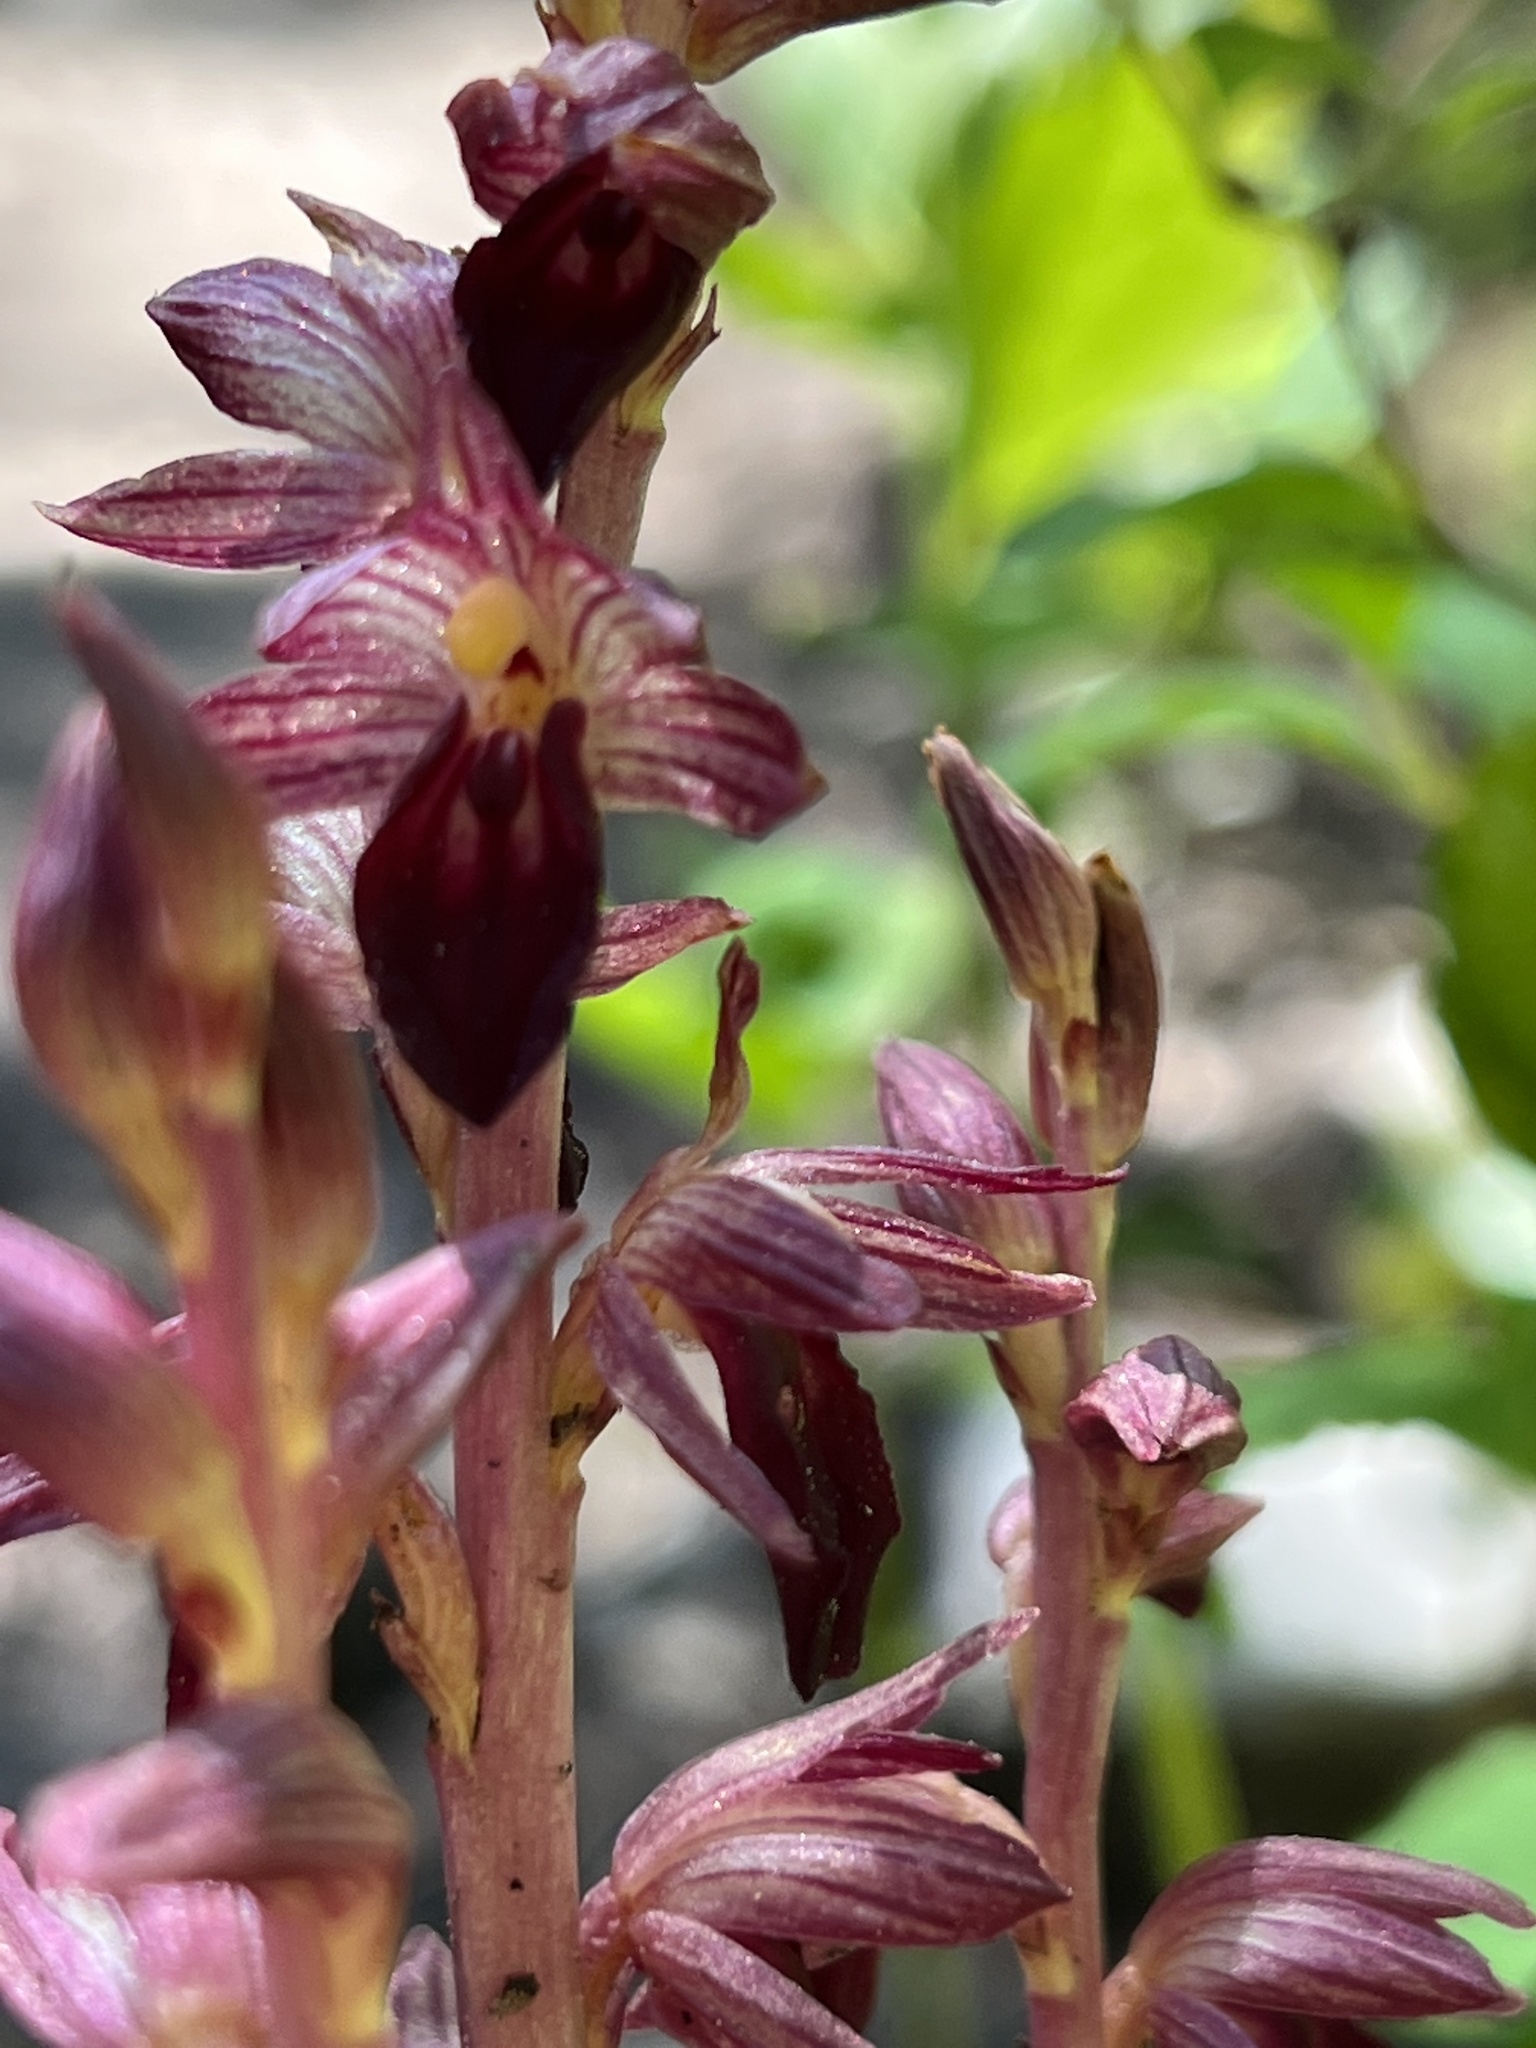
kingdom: Plantae
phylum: Tracheophyta
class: Liliopsida
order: Asparagales
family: Orchidaceae
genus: Corallorhiza
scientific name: Corallorhiza striata
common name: Hooded coralroot
